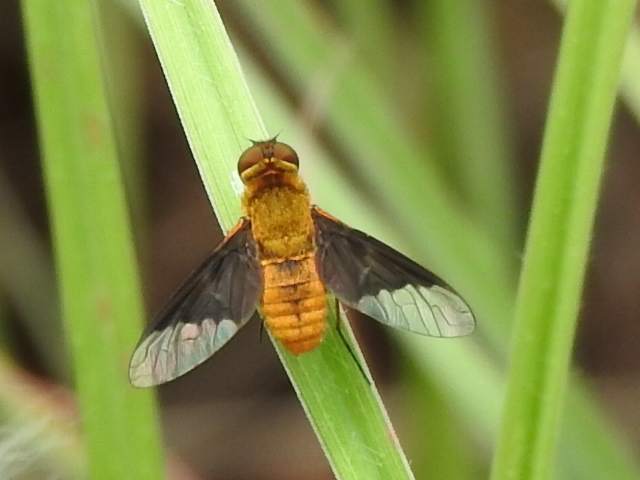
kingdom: Animalia
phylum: Arthropoda
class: Insecta
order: Diptera
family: Bombyliidae
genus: Chrysanthrax
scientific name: Chrysanthrax cypris
